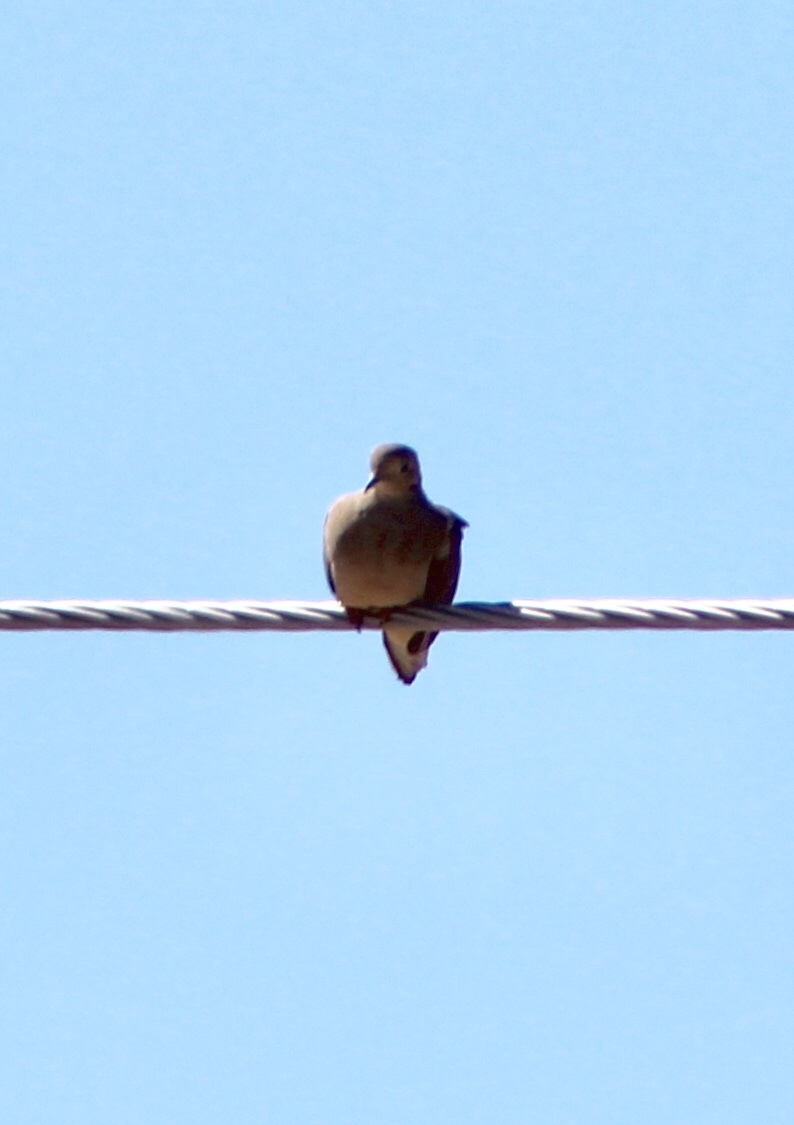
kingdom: Animalia
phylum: Chordata
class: Aves
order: Columbiformes
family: Columbidae
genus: Zenaida
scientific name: Zenaida macroura
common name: Mourning dove
